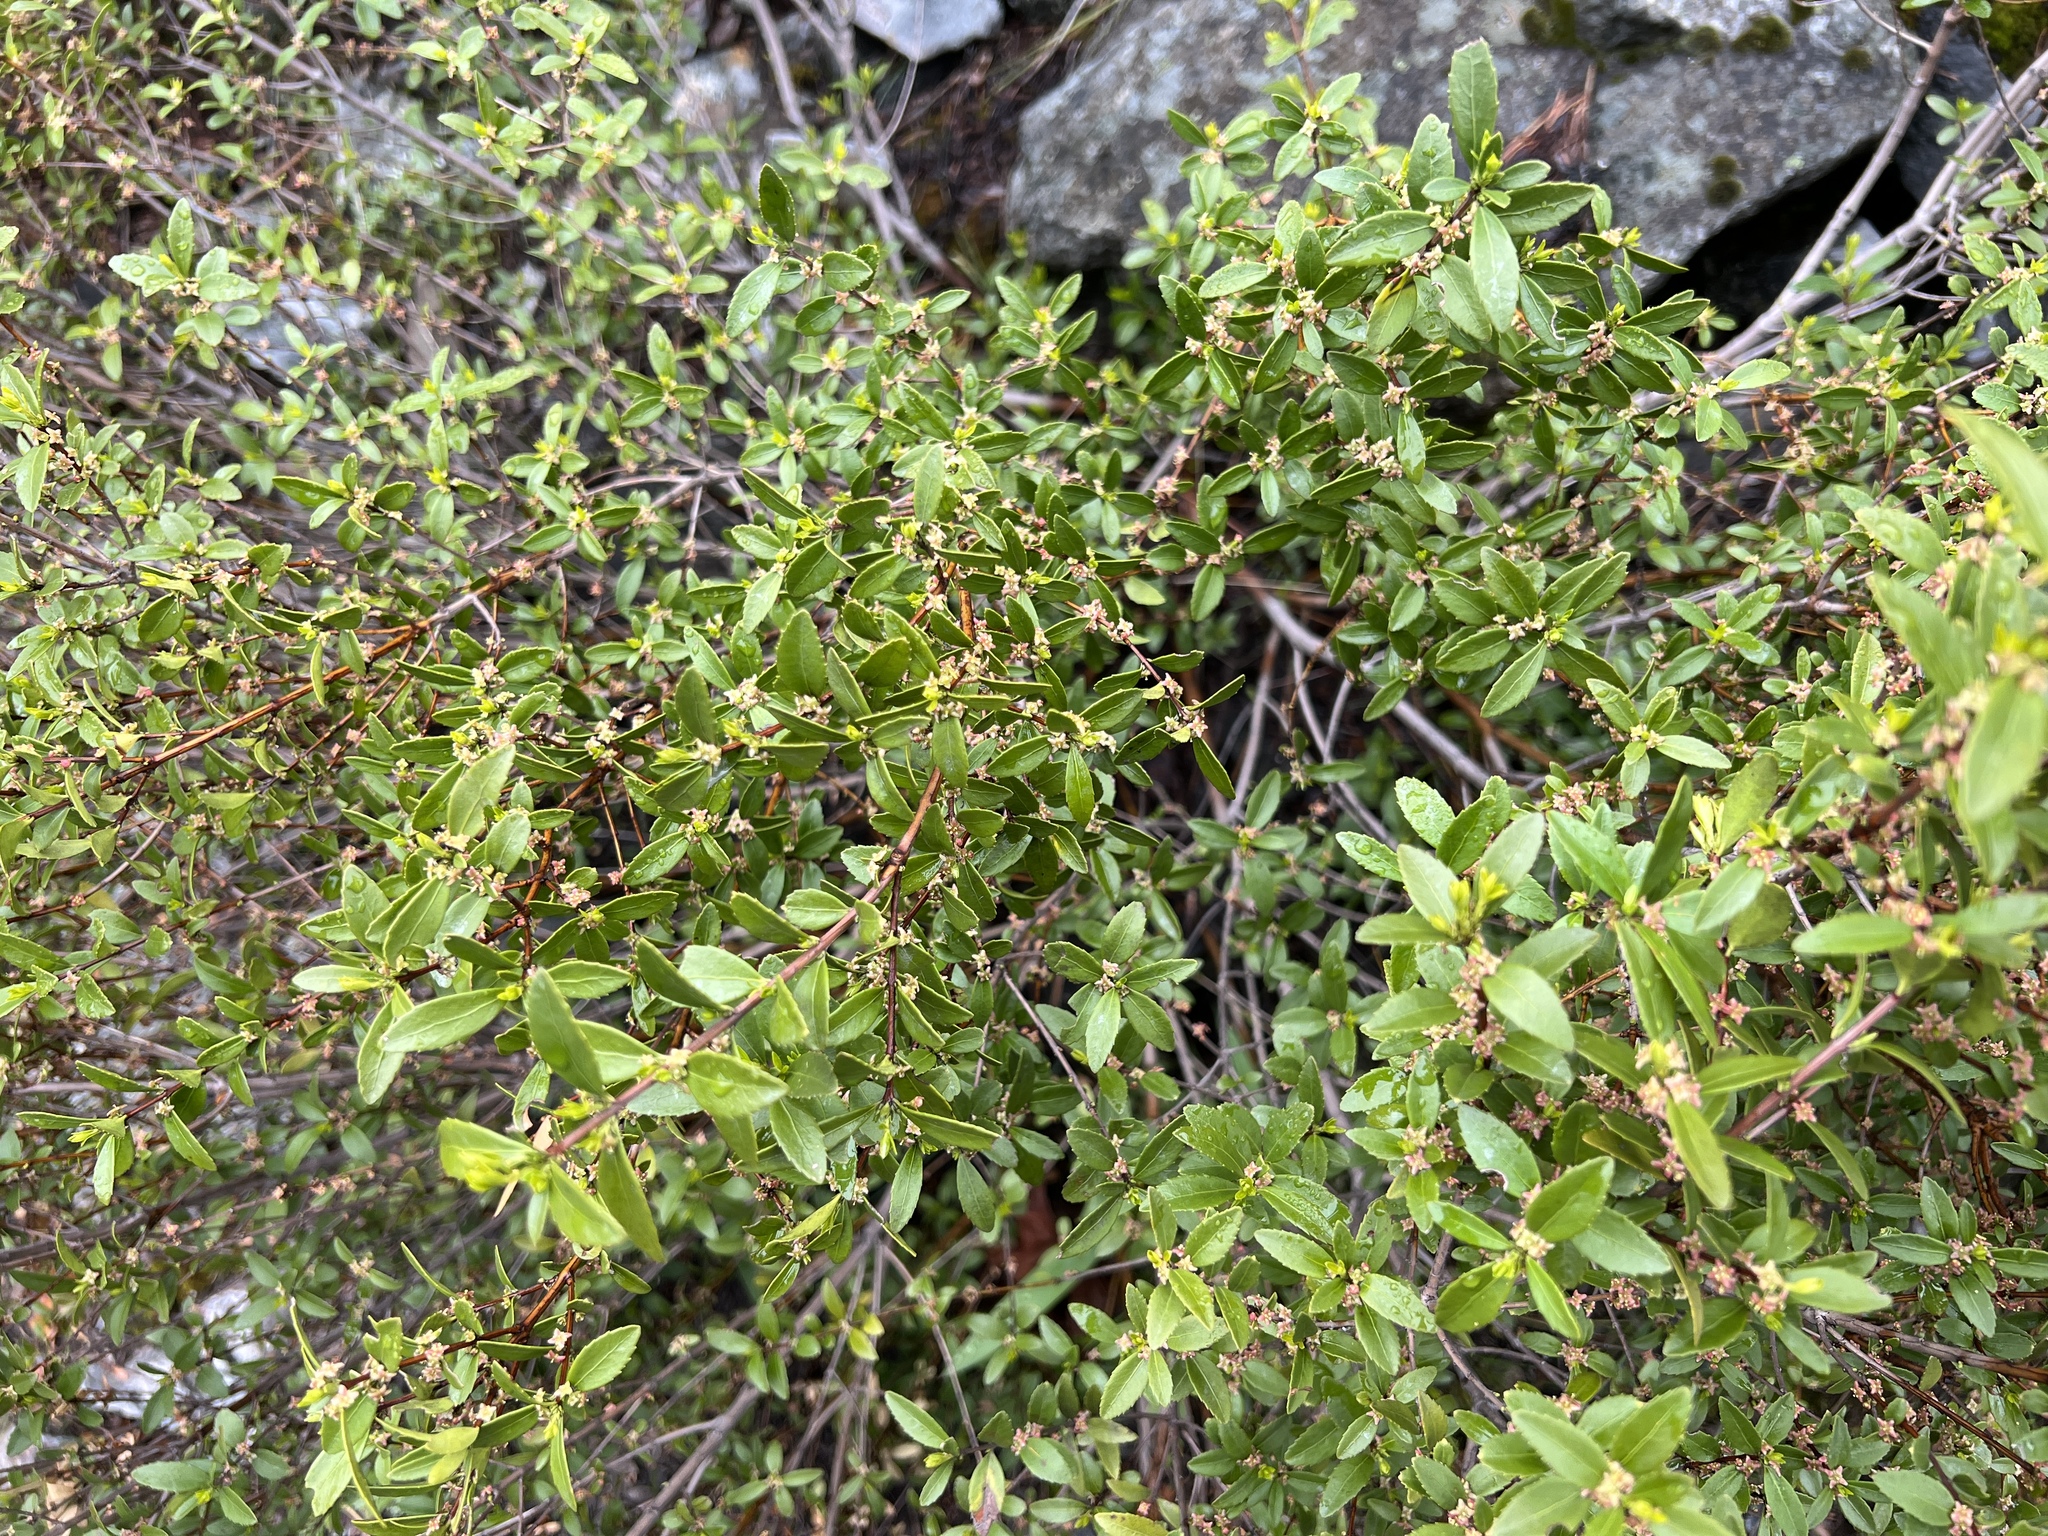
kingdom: Plantae
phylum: Tracheophyta
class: Magnoliopsida
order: Celastrales
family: Celastraceae
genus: Paxistima
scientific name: Paxistima myrsinites
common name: Mountain-lover
